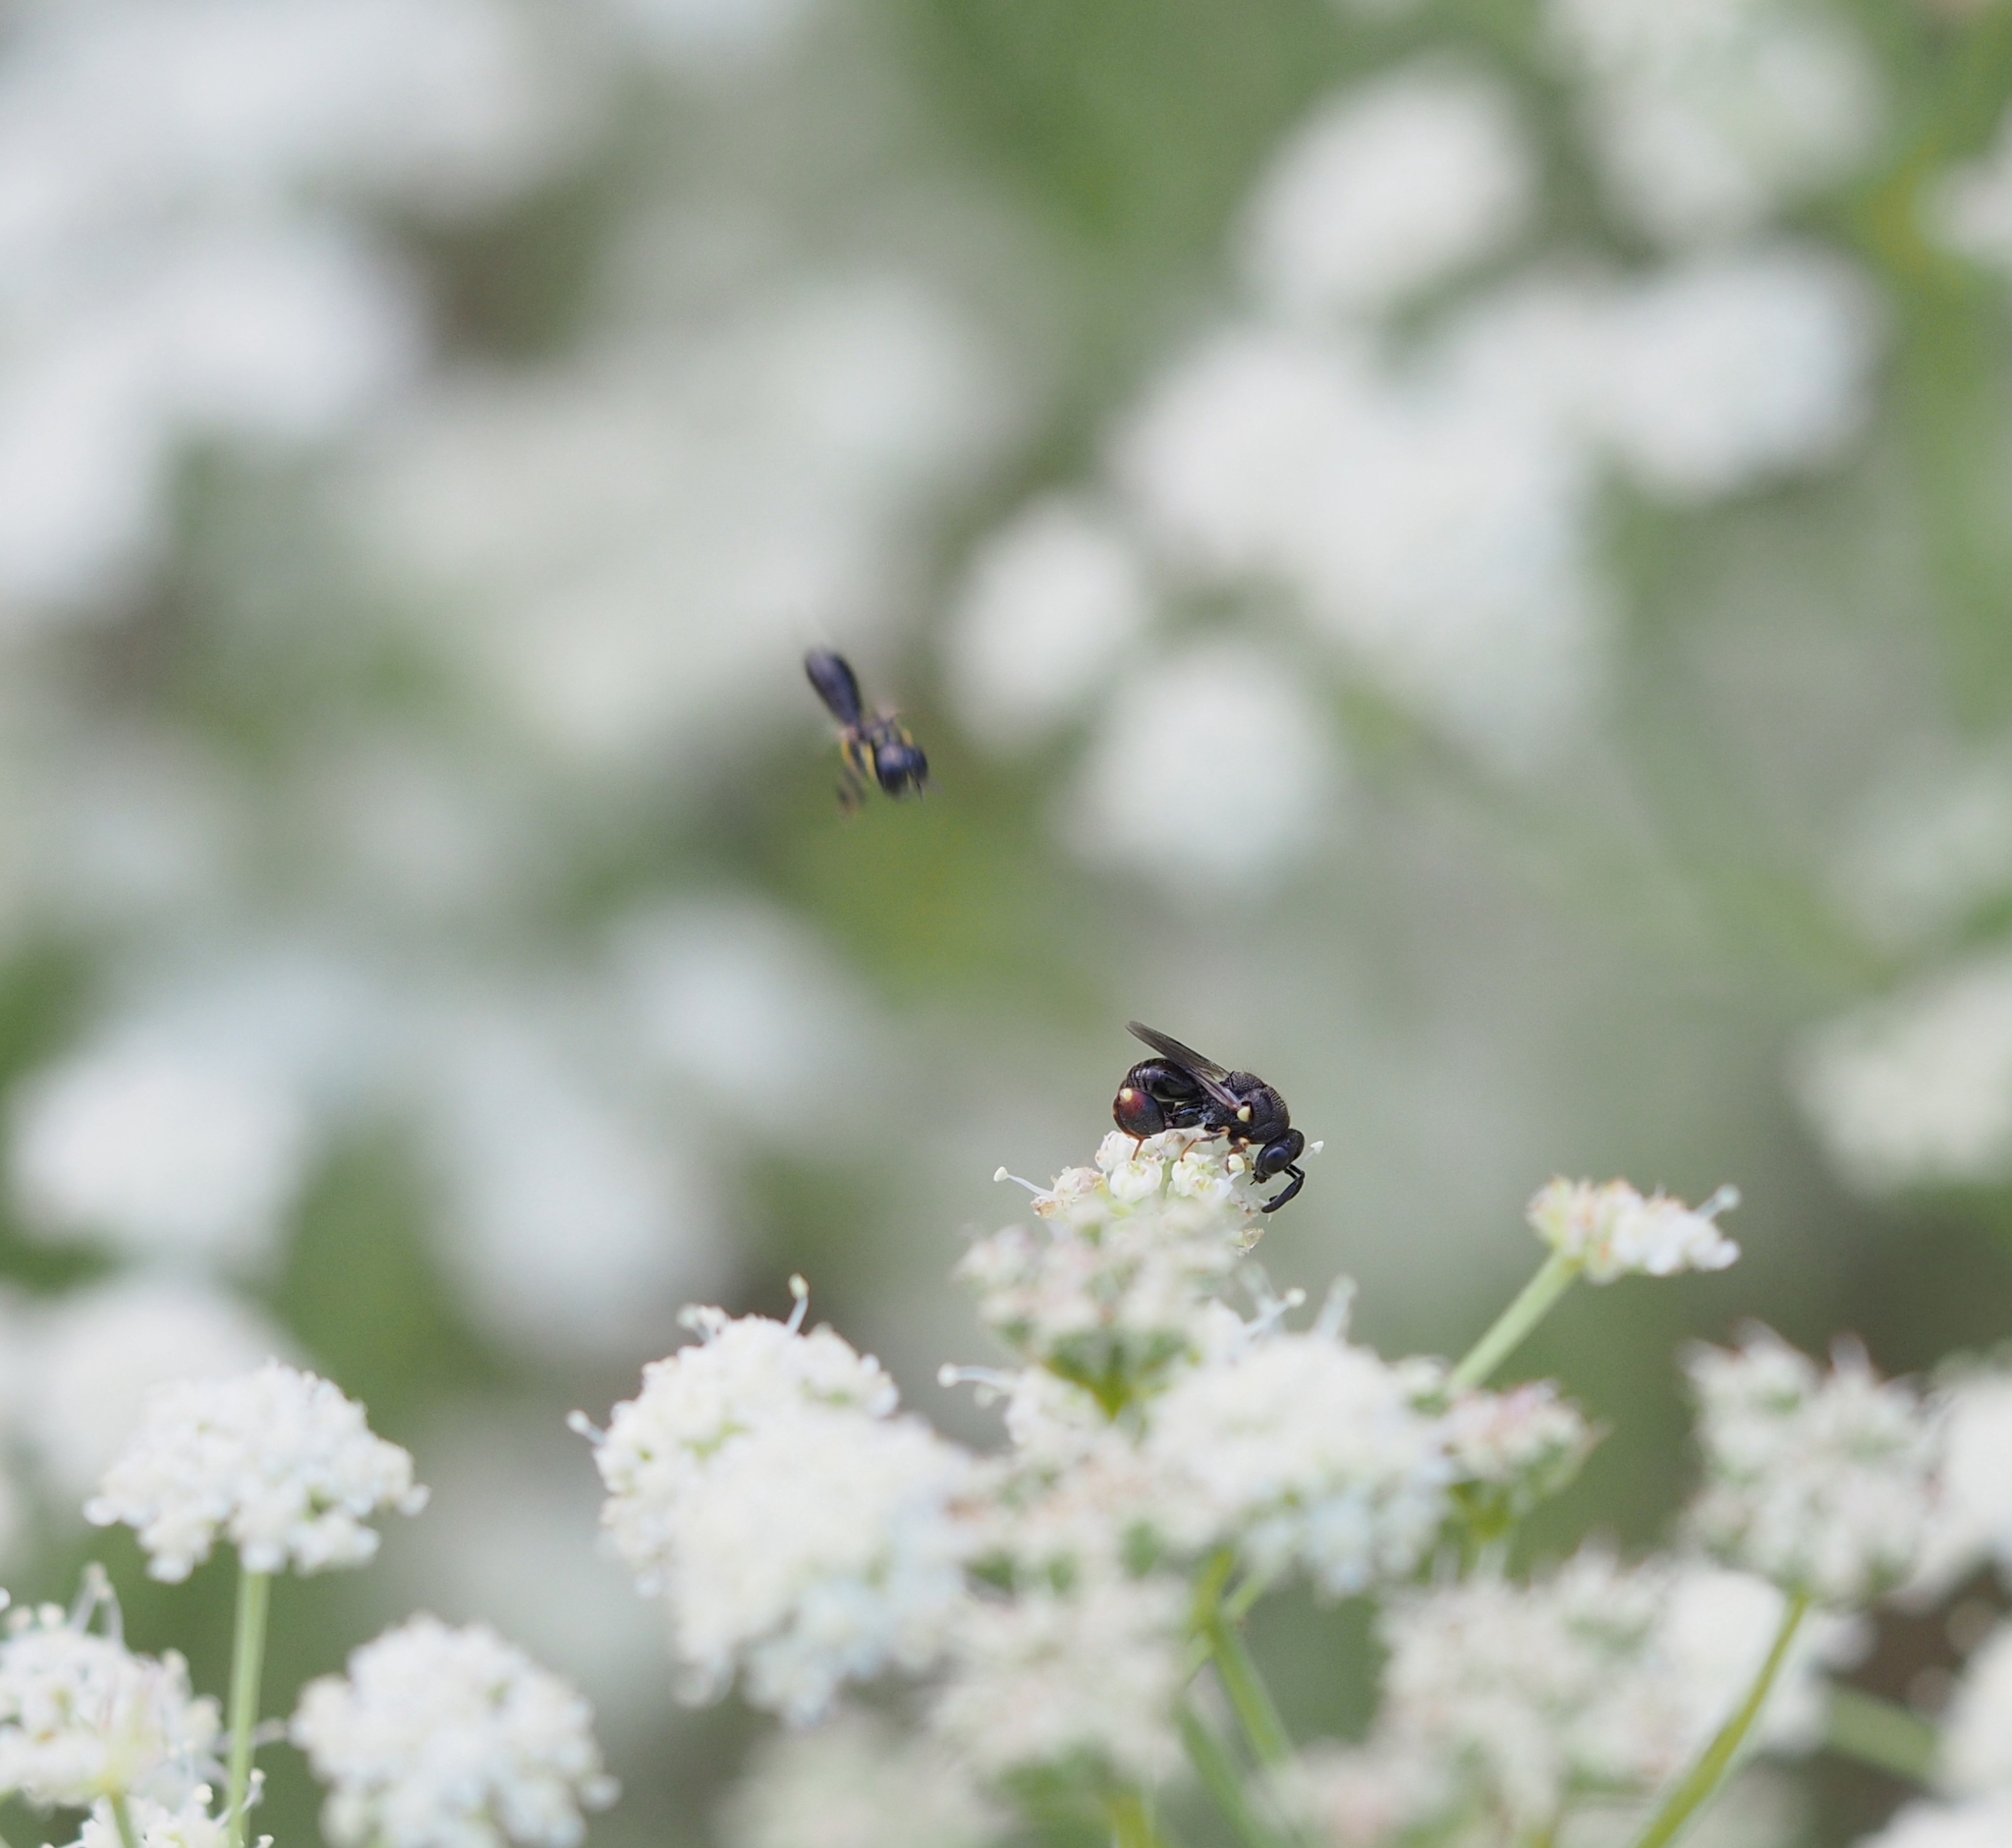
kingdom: Animalia
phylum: Arthropoda
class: Insecta
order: Hymenoptera
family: Chalcididae
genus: Brachymeria
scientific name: Brachymeria obtusata
